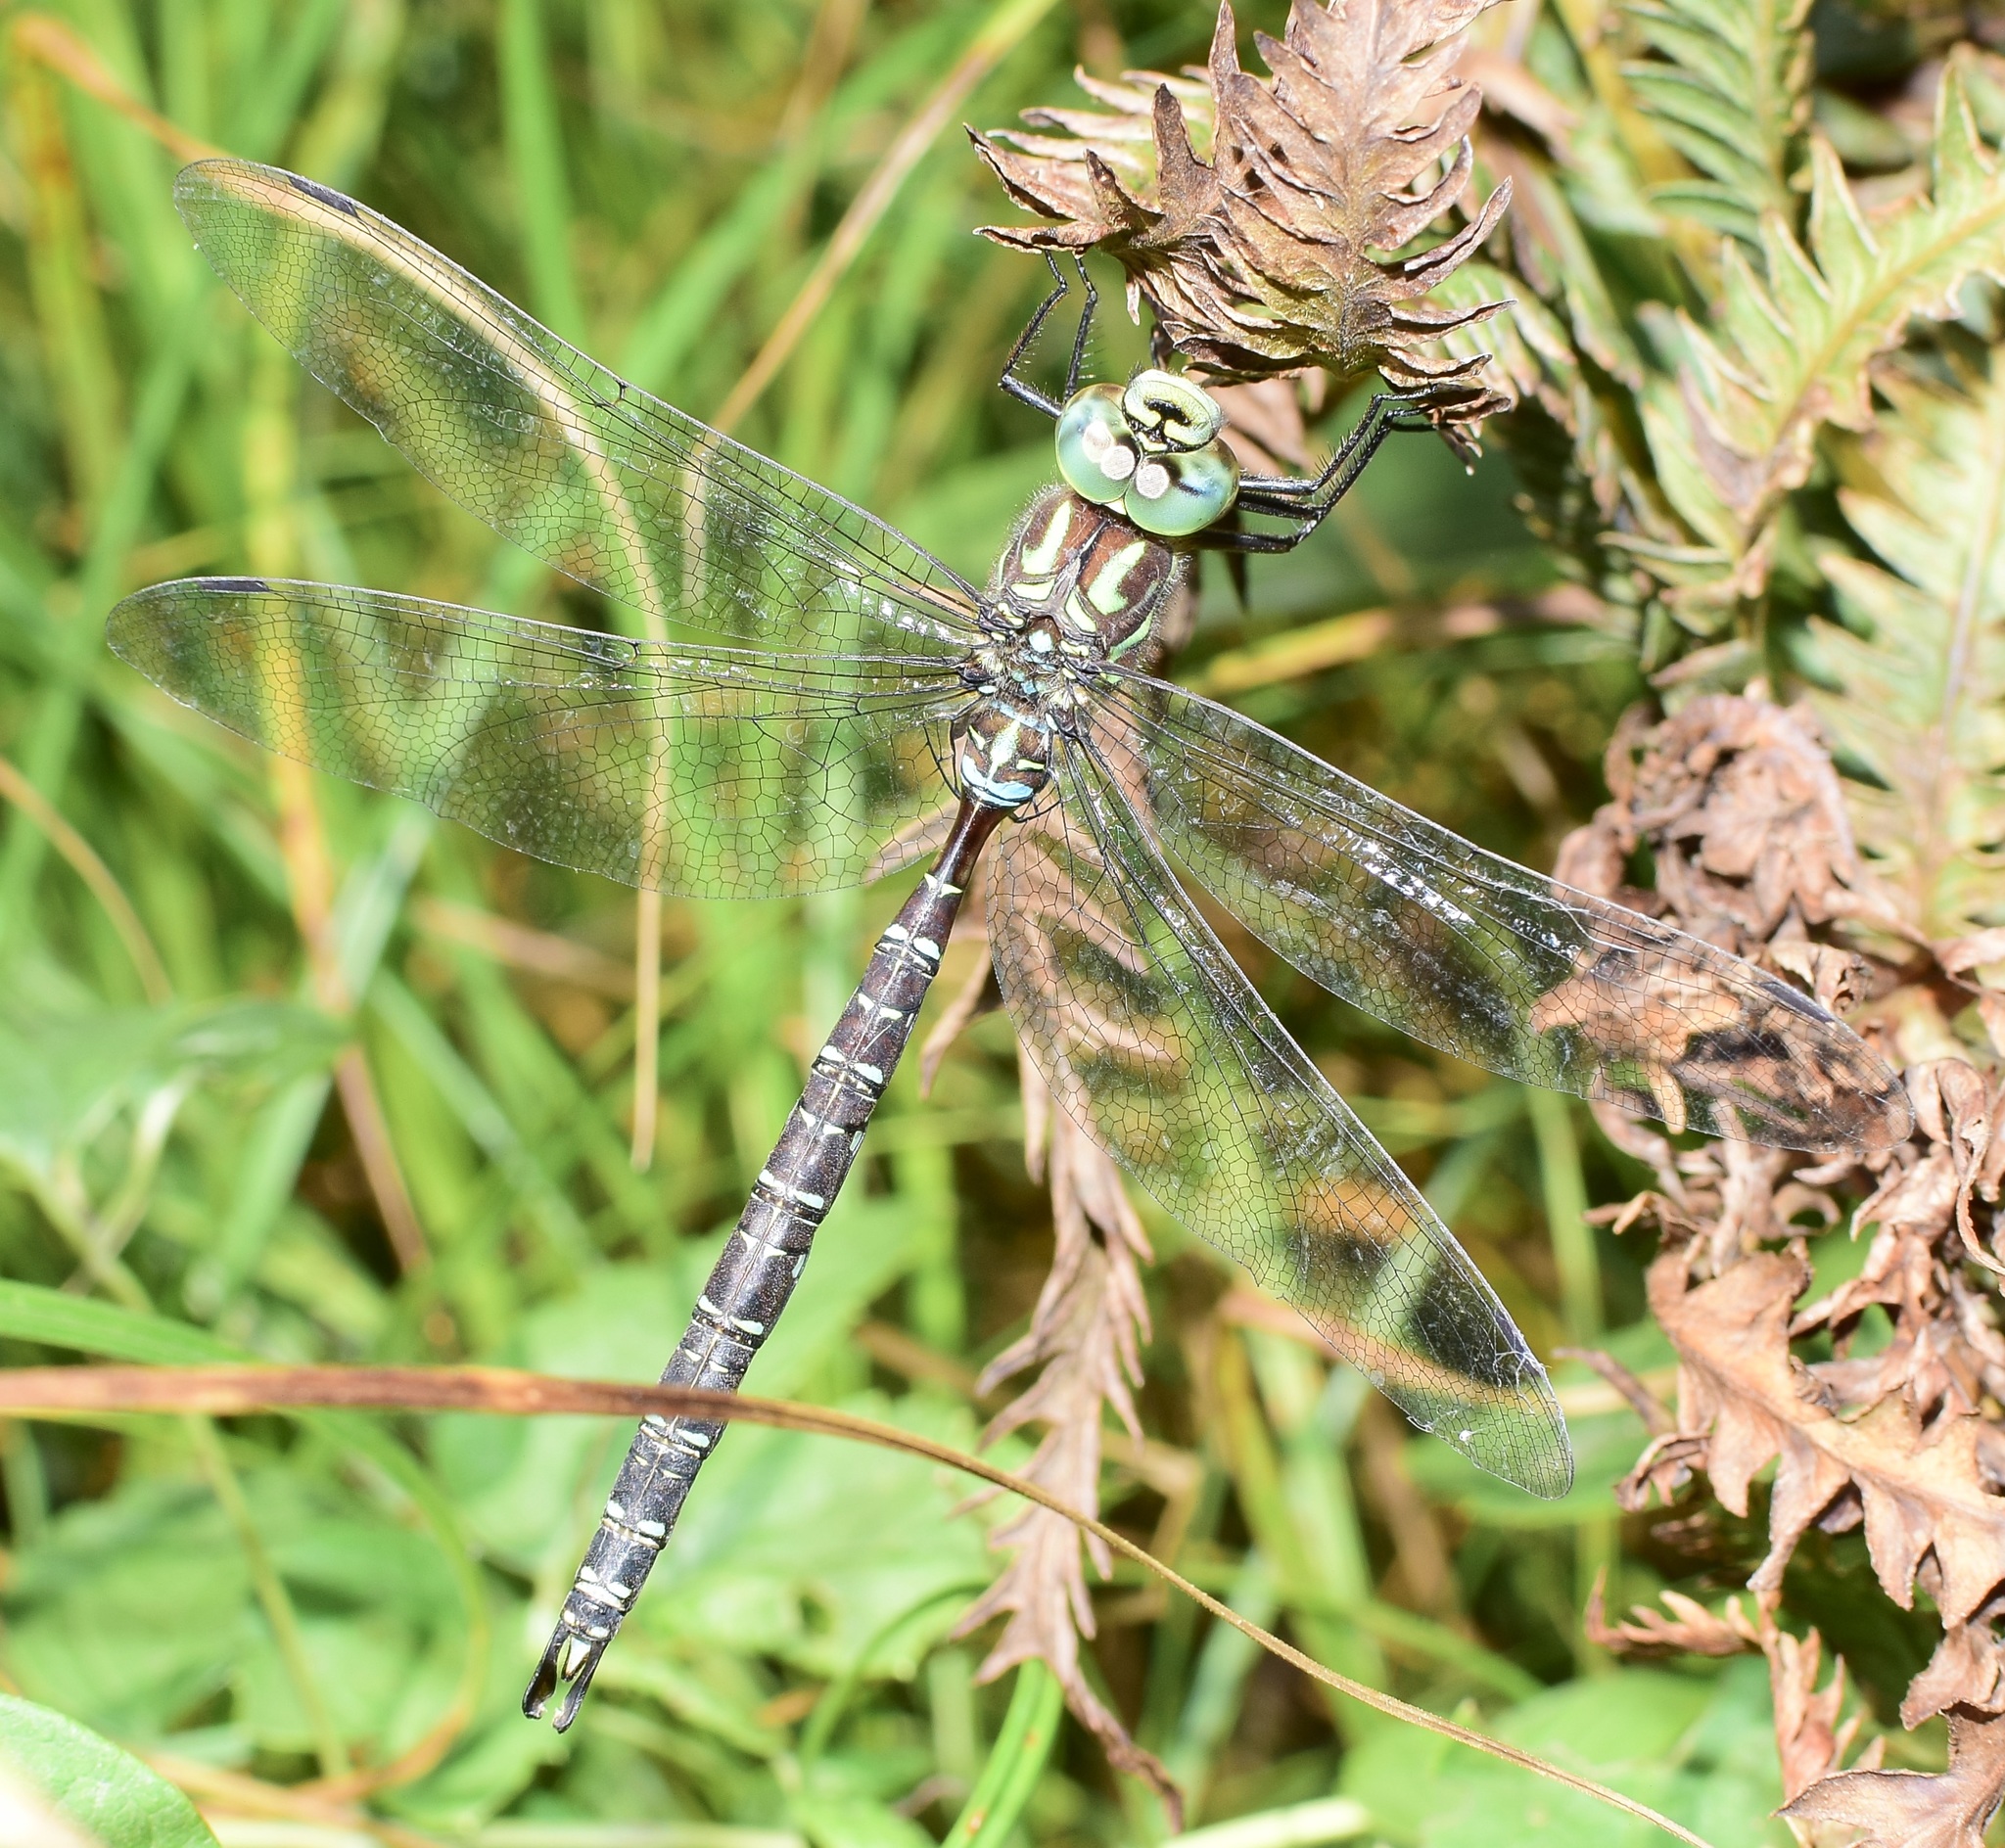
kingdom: Animalia
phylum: Arthropoda
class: Insecta
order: Odonata
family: Aeshnidae
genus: Aeshna
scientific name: Aeshna umbrosa
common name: Shadow darner
